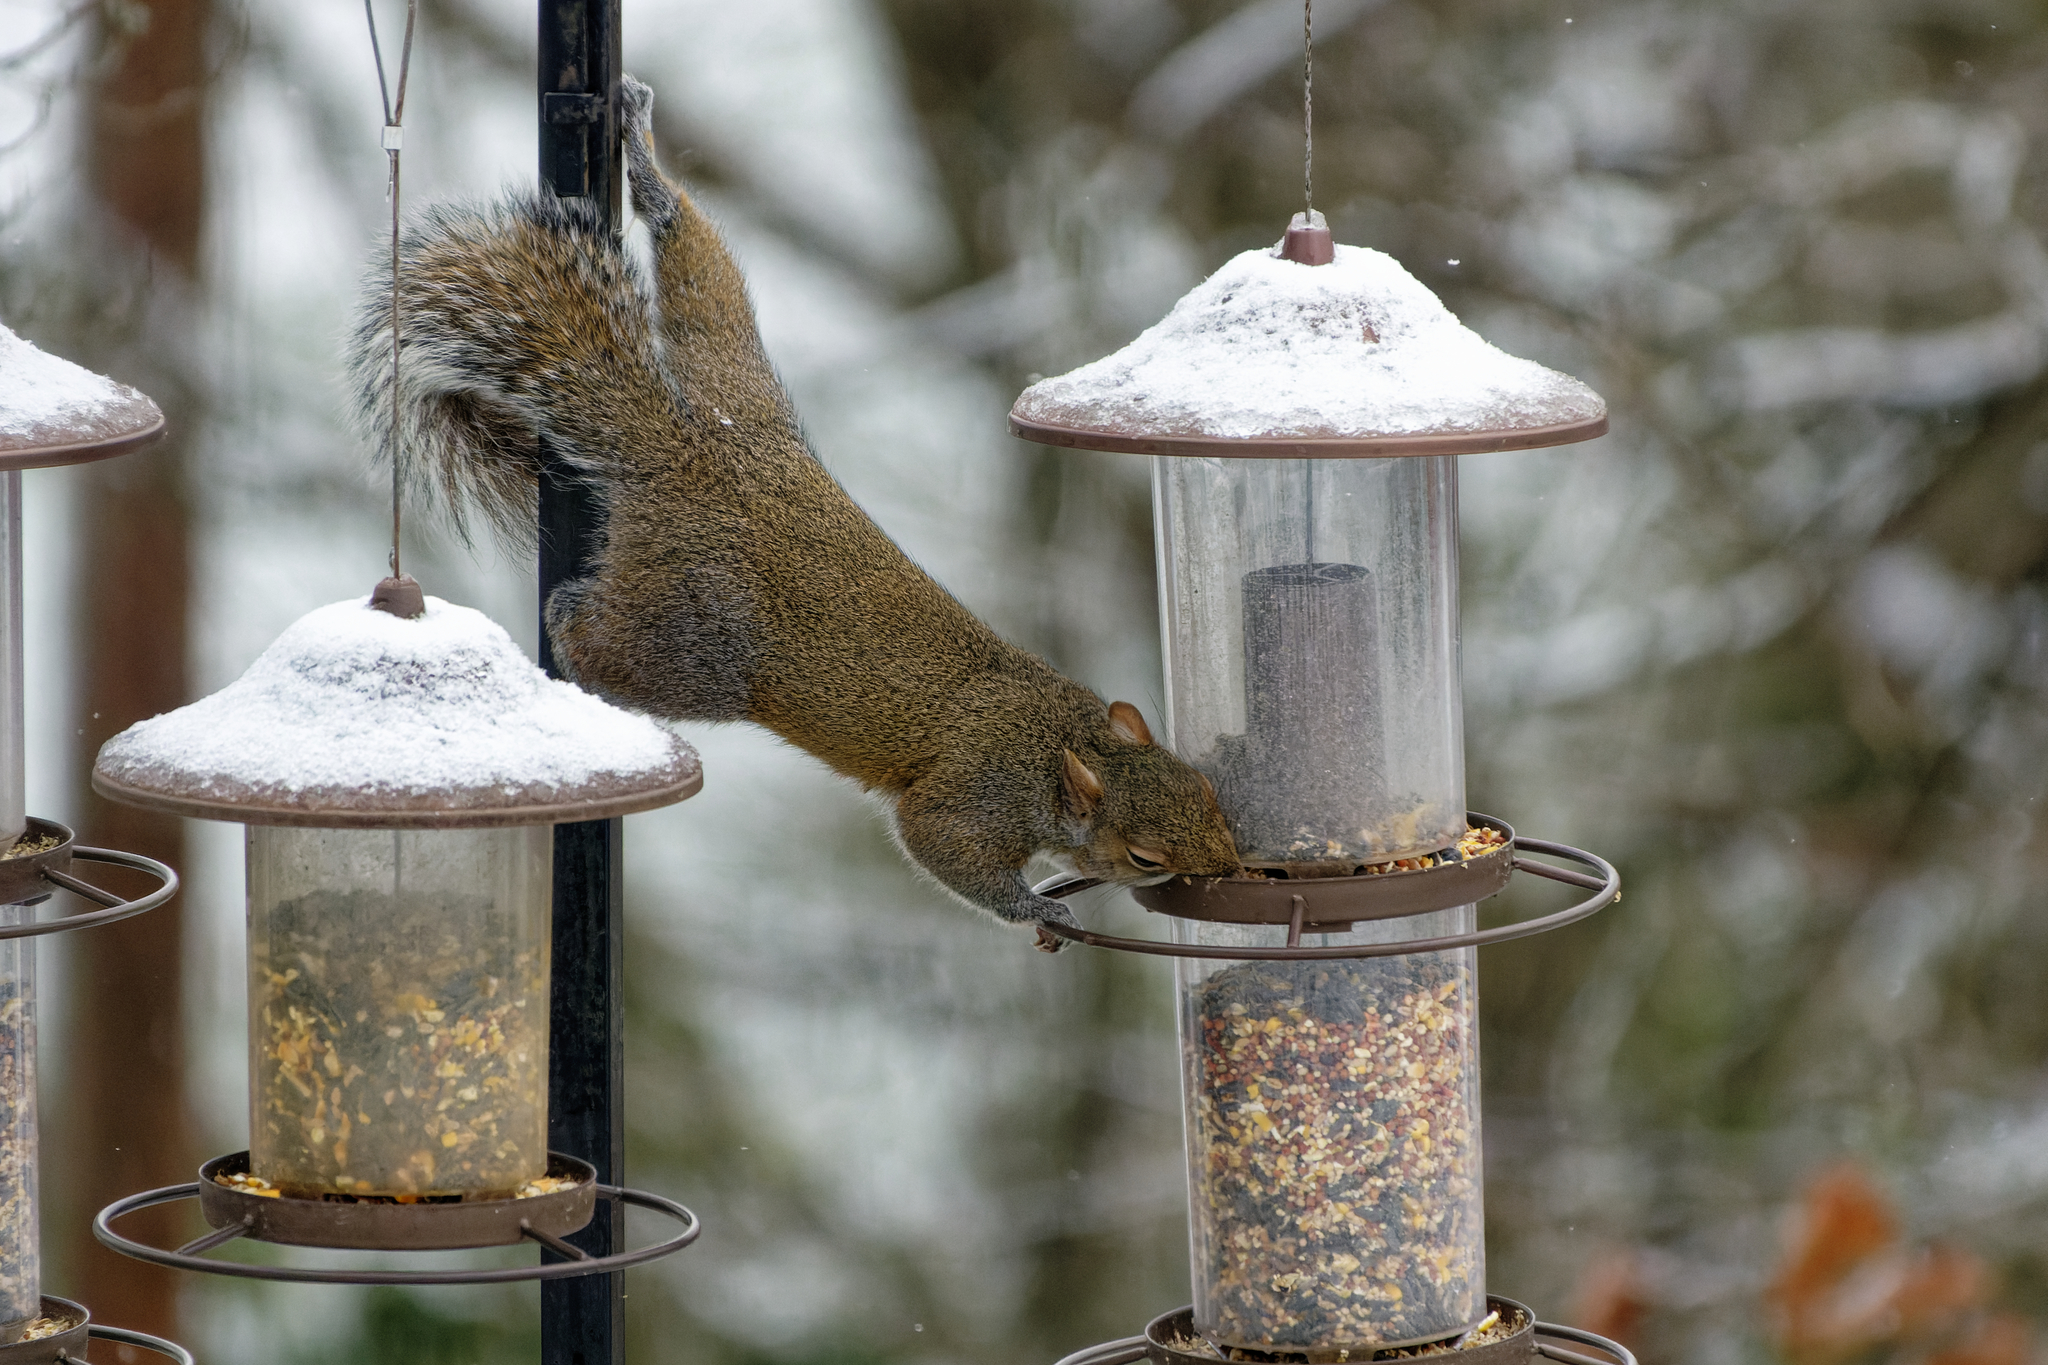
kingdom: Animalia
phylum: Chordata
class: Mammalia
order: Rodentia
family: Sciuridae
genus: Sciurus
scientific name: Sciurus carolinensis
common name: Eastern gray squirrel
